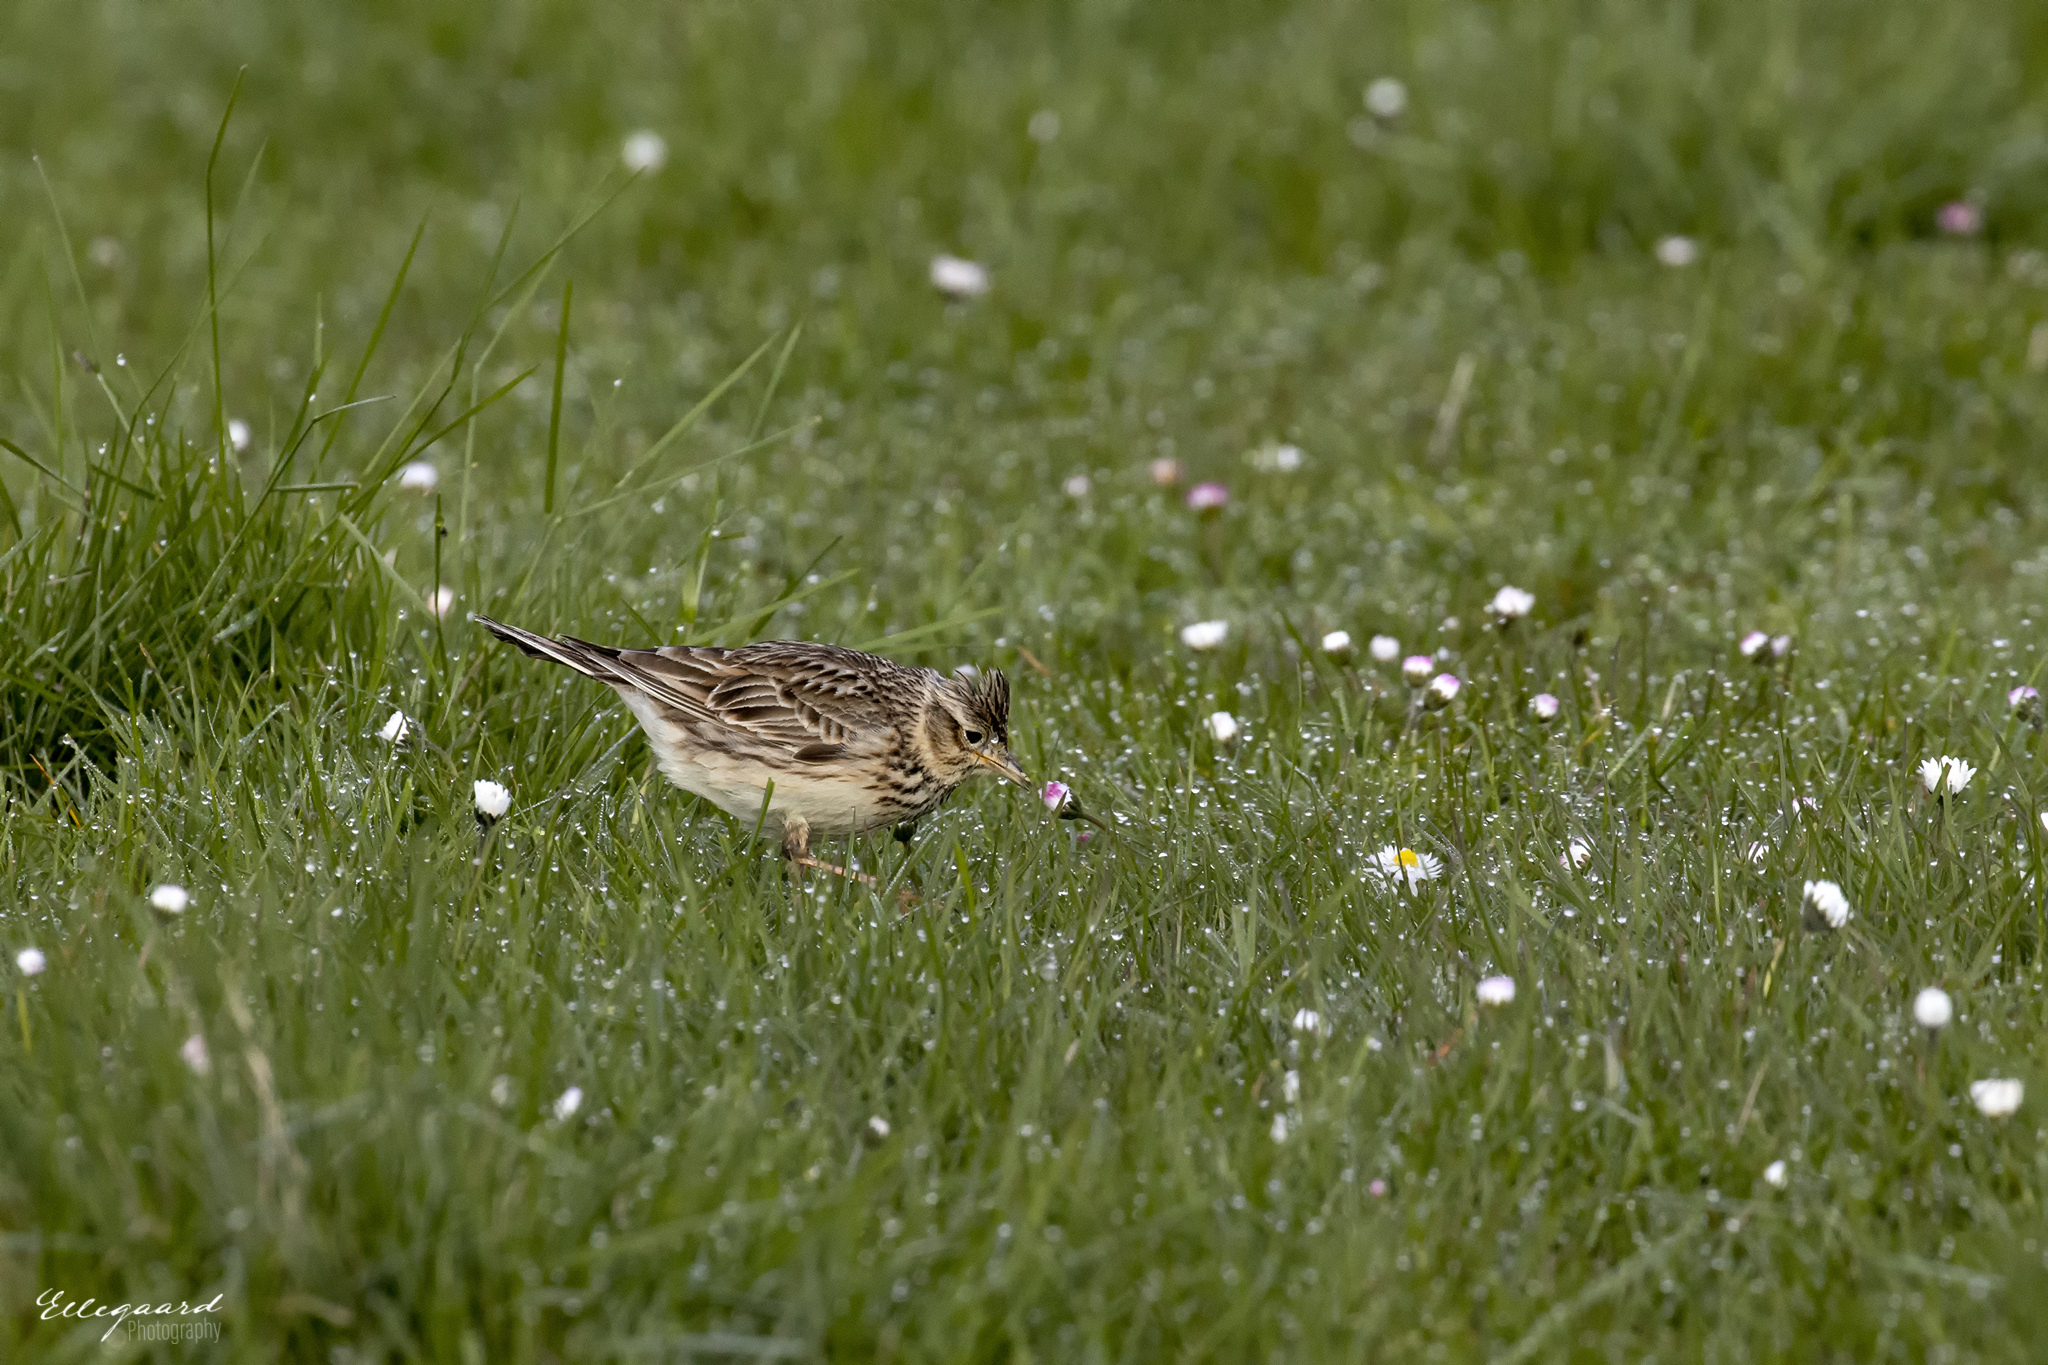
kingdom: Animalia
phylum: Chordata
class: Aves
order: Passeriformes
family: Alaudidae
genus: Alauda
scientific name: Alauda arvensis
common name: Eurasian skylark
